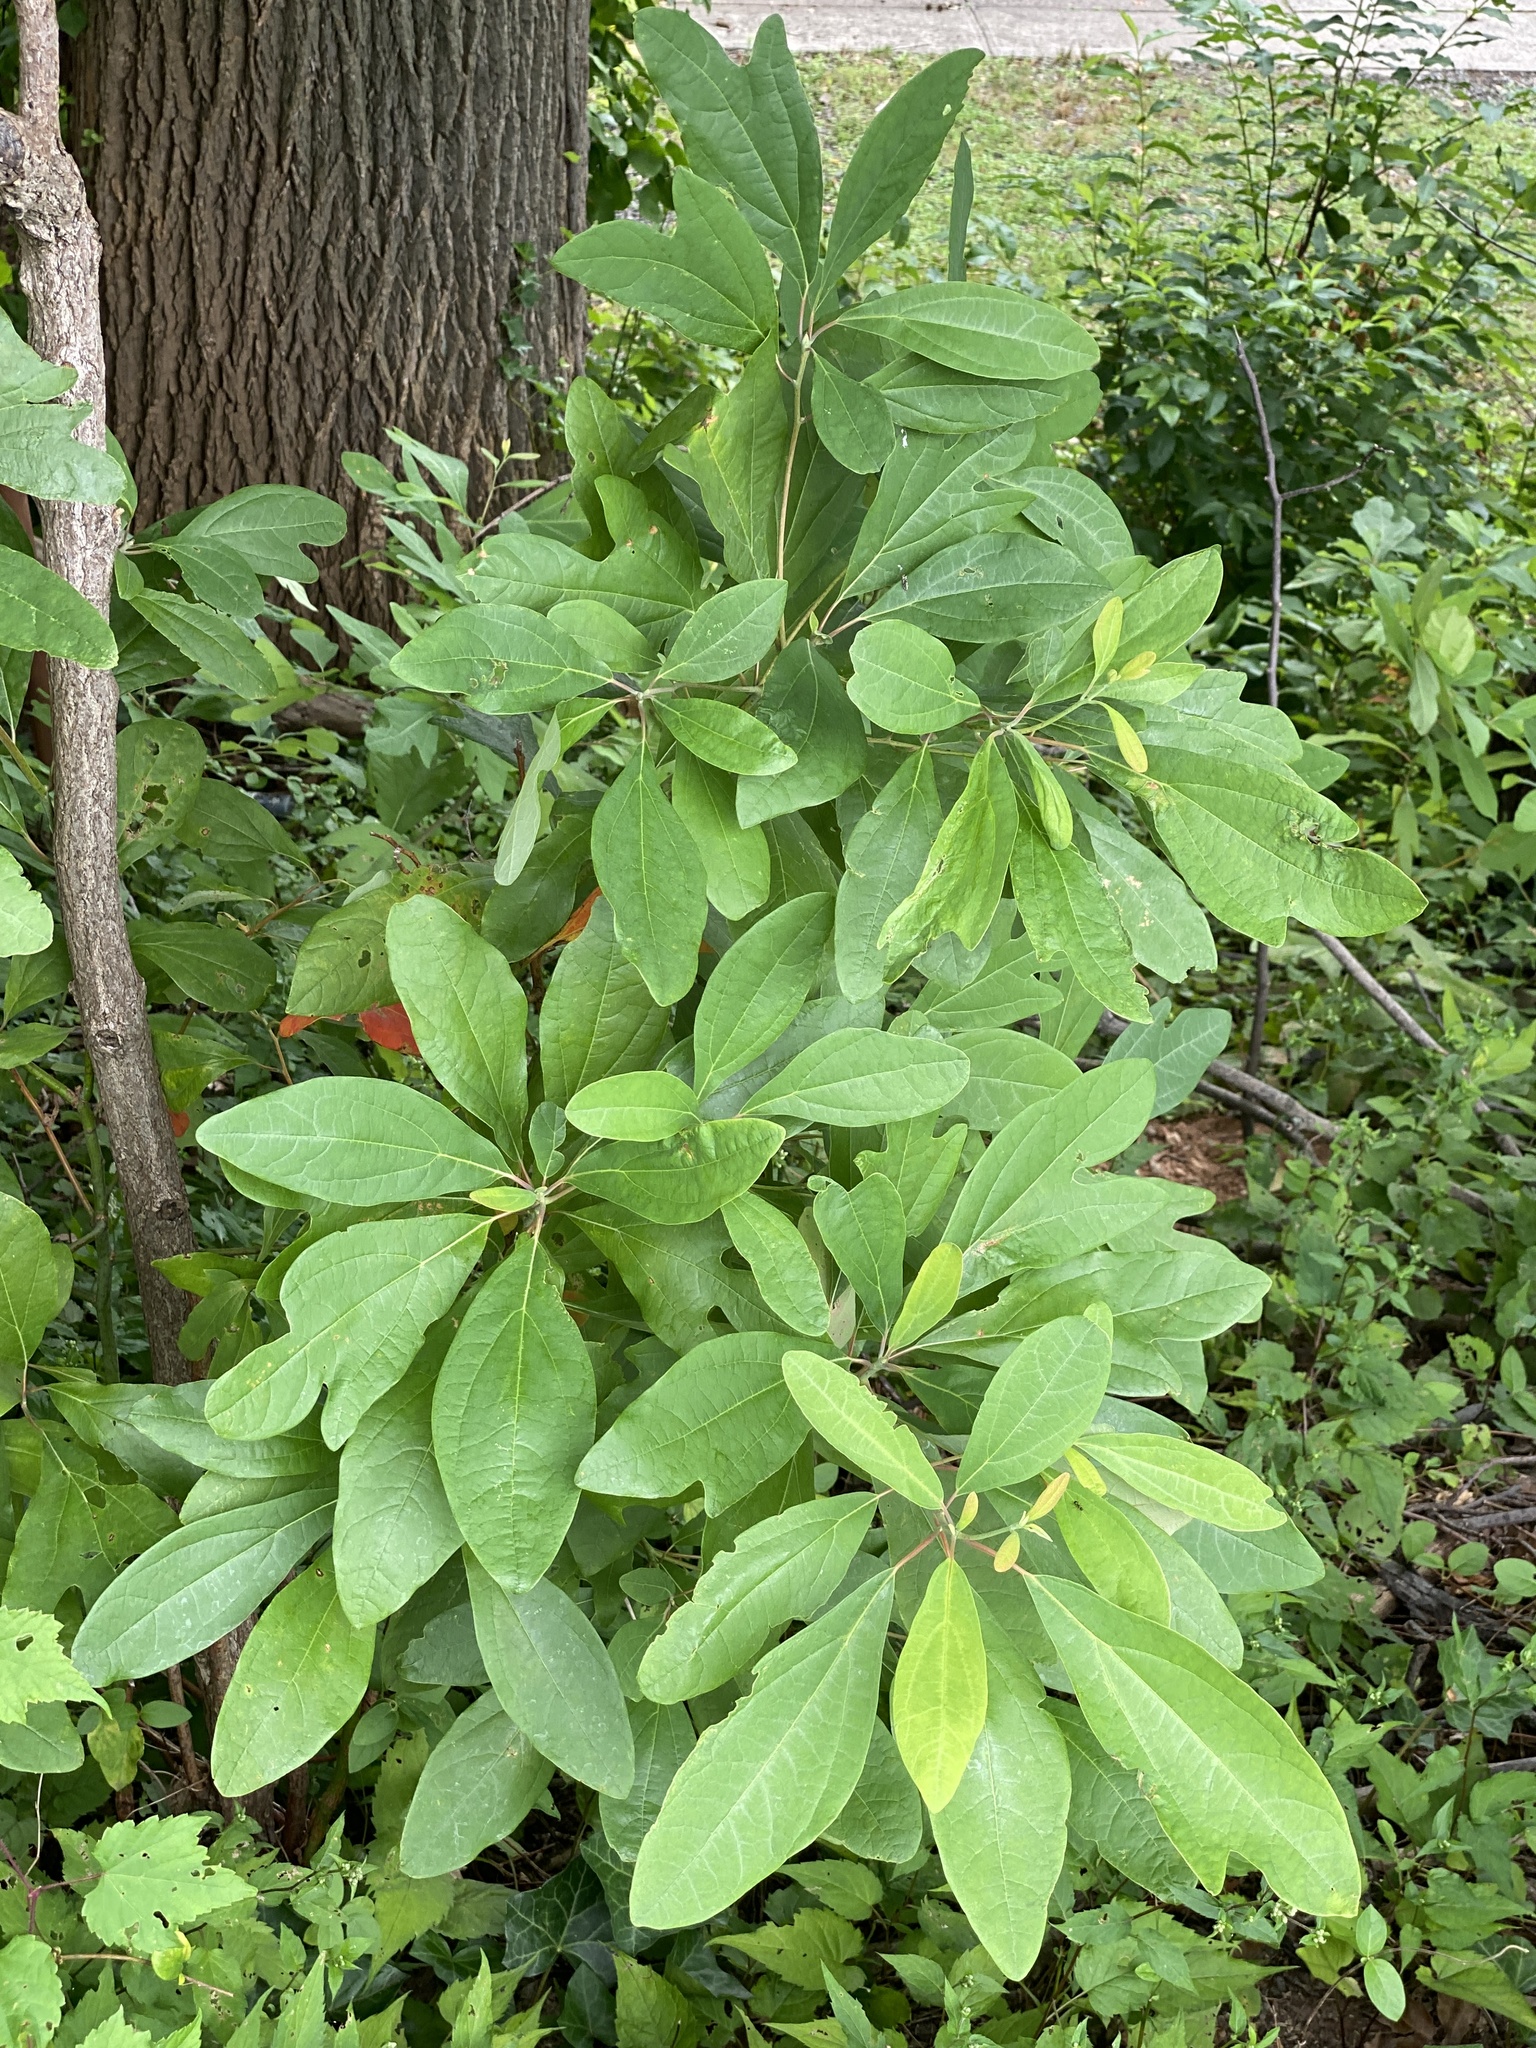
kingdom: Plantae
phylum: Tracheophyta
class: Magnoliopsida
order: Laurales
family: Lauraceae
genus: Sassafras
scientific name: Sassafras albidum
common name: Sassafras
